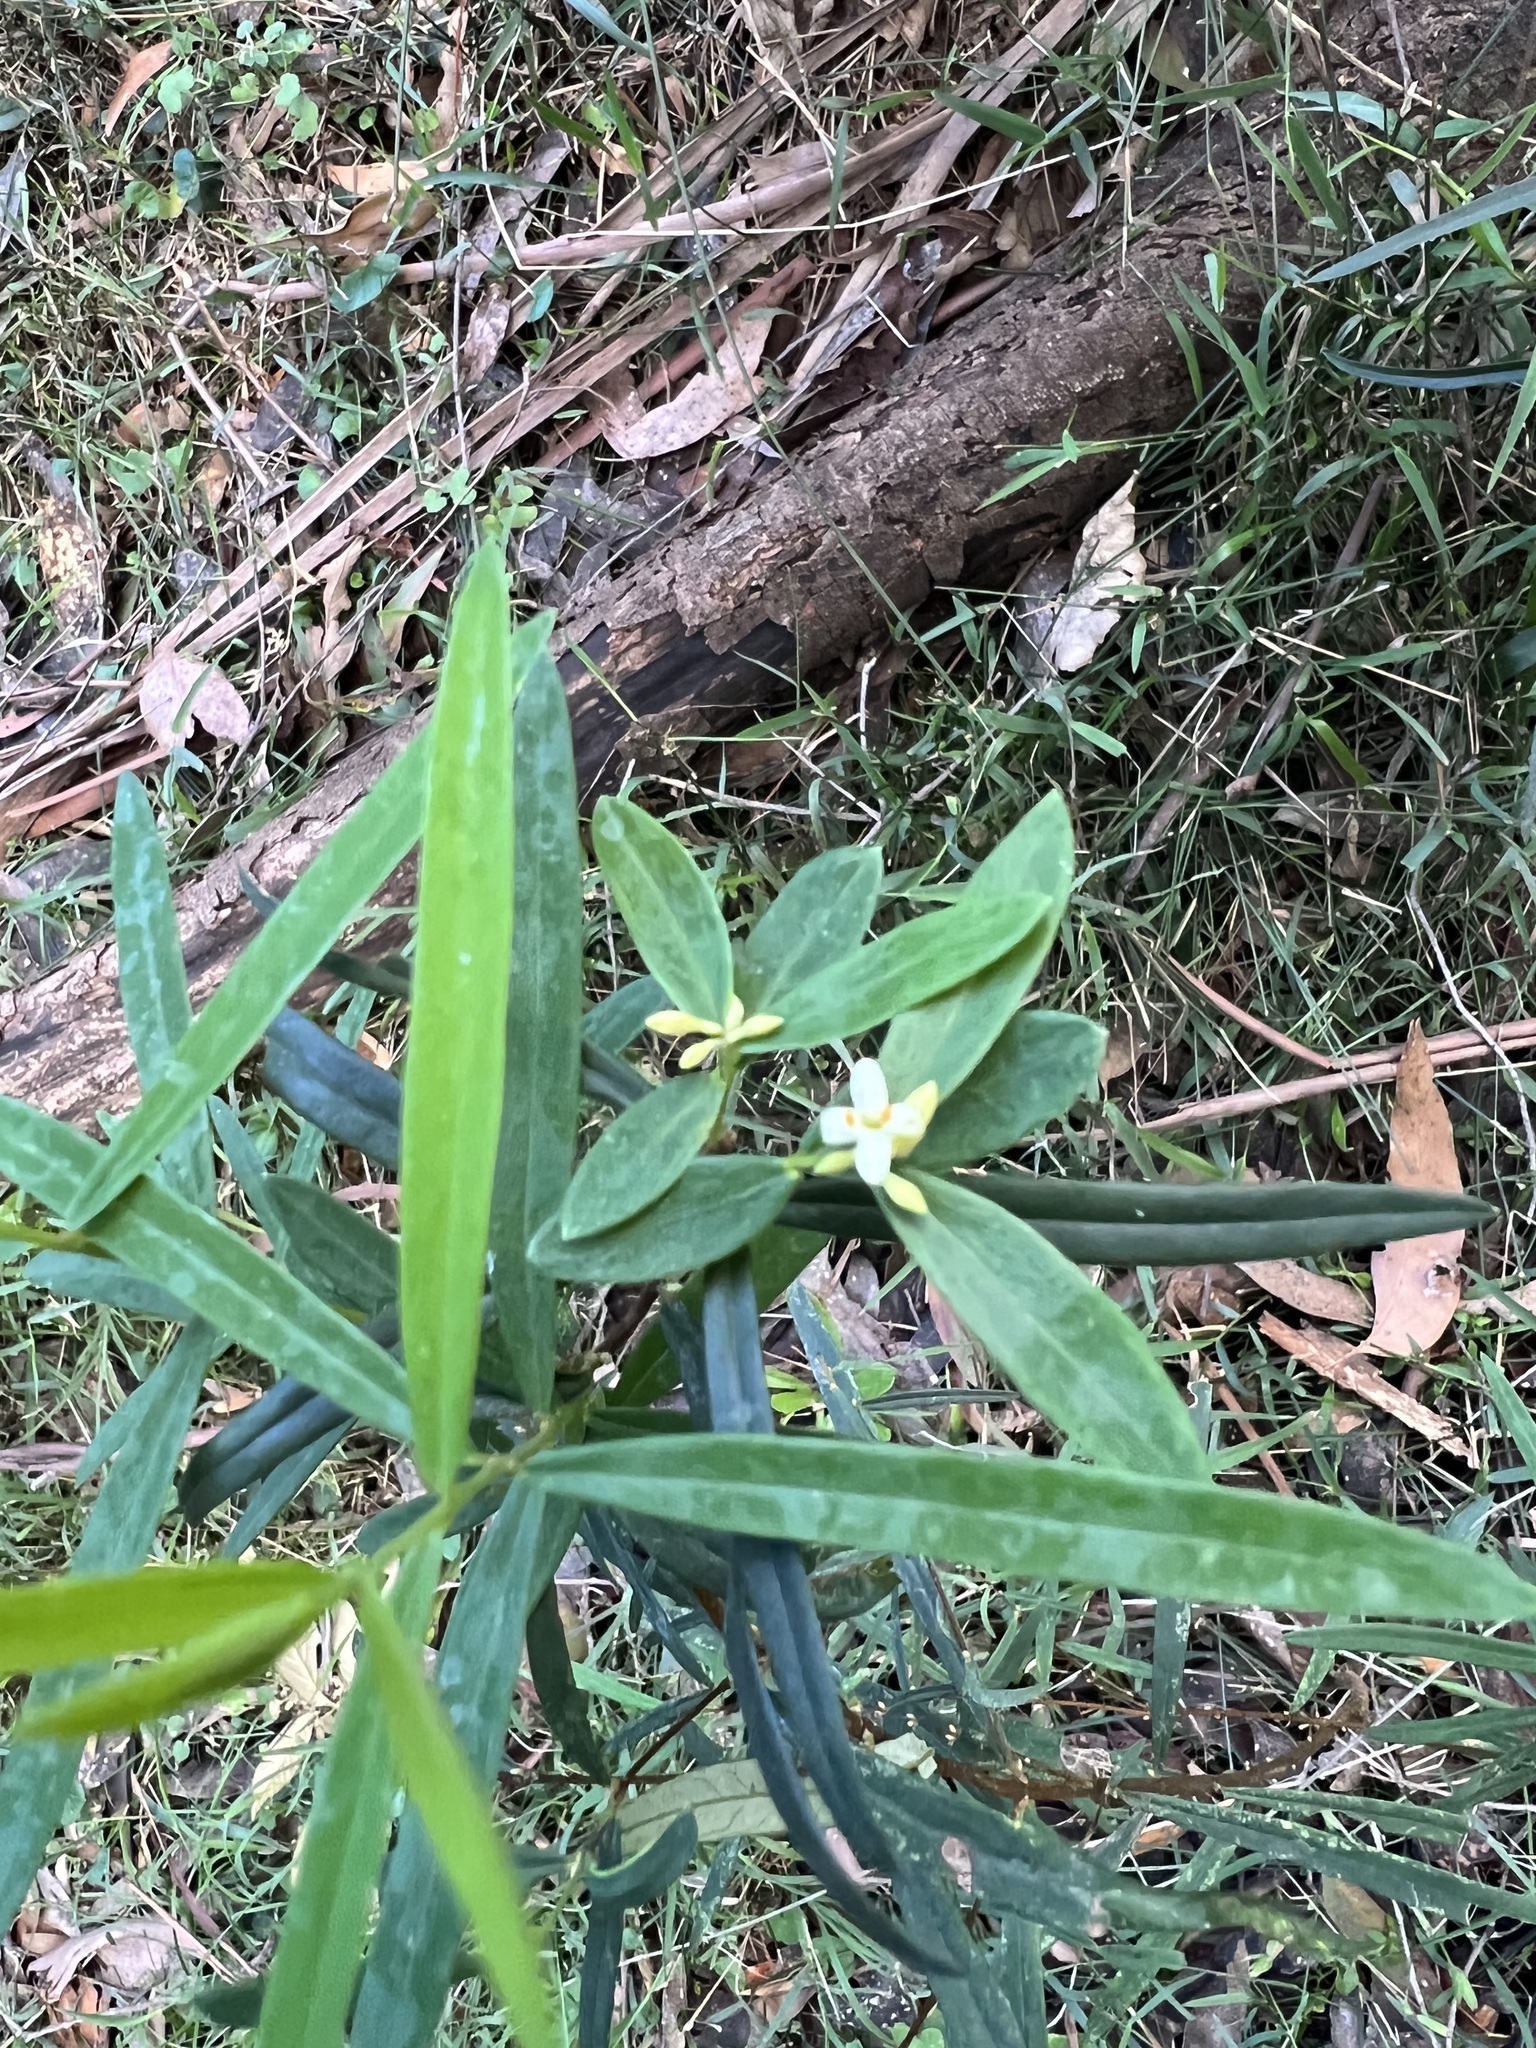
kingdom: Plantae
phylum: Tracheophyta
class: Magnoliopsida
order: Malvales
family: Thymelaeaceae
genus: Pimelea
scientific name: Pimelea axiflora
